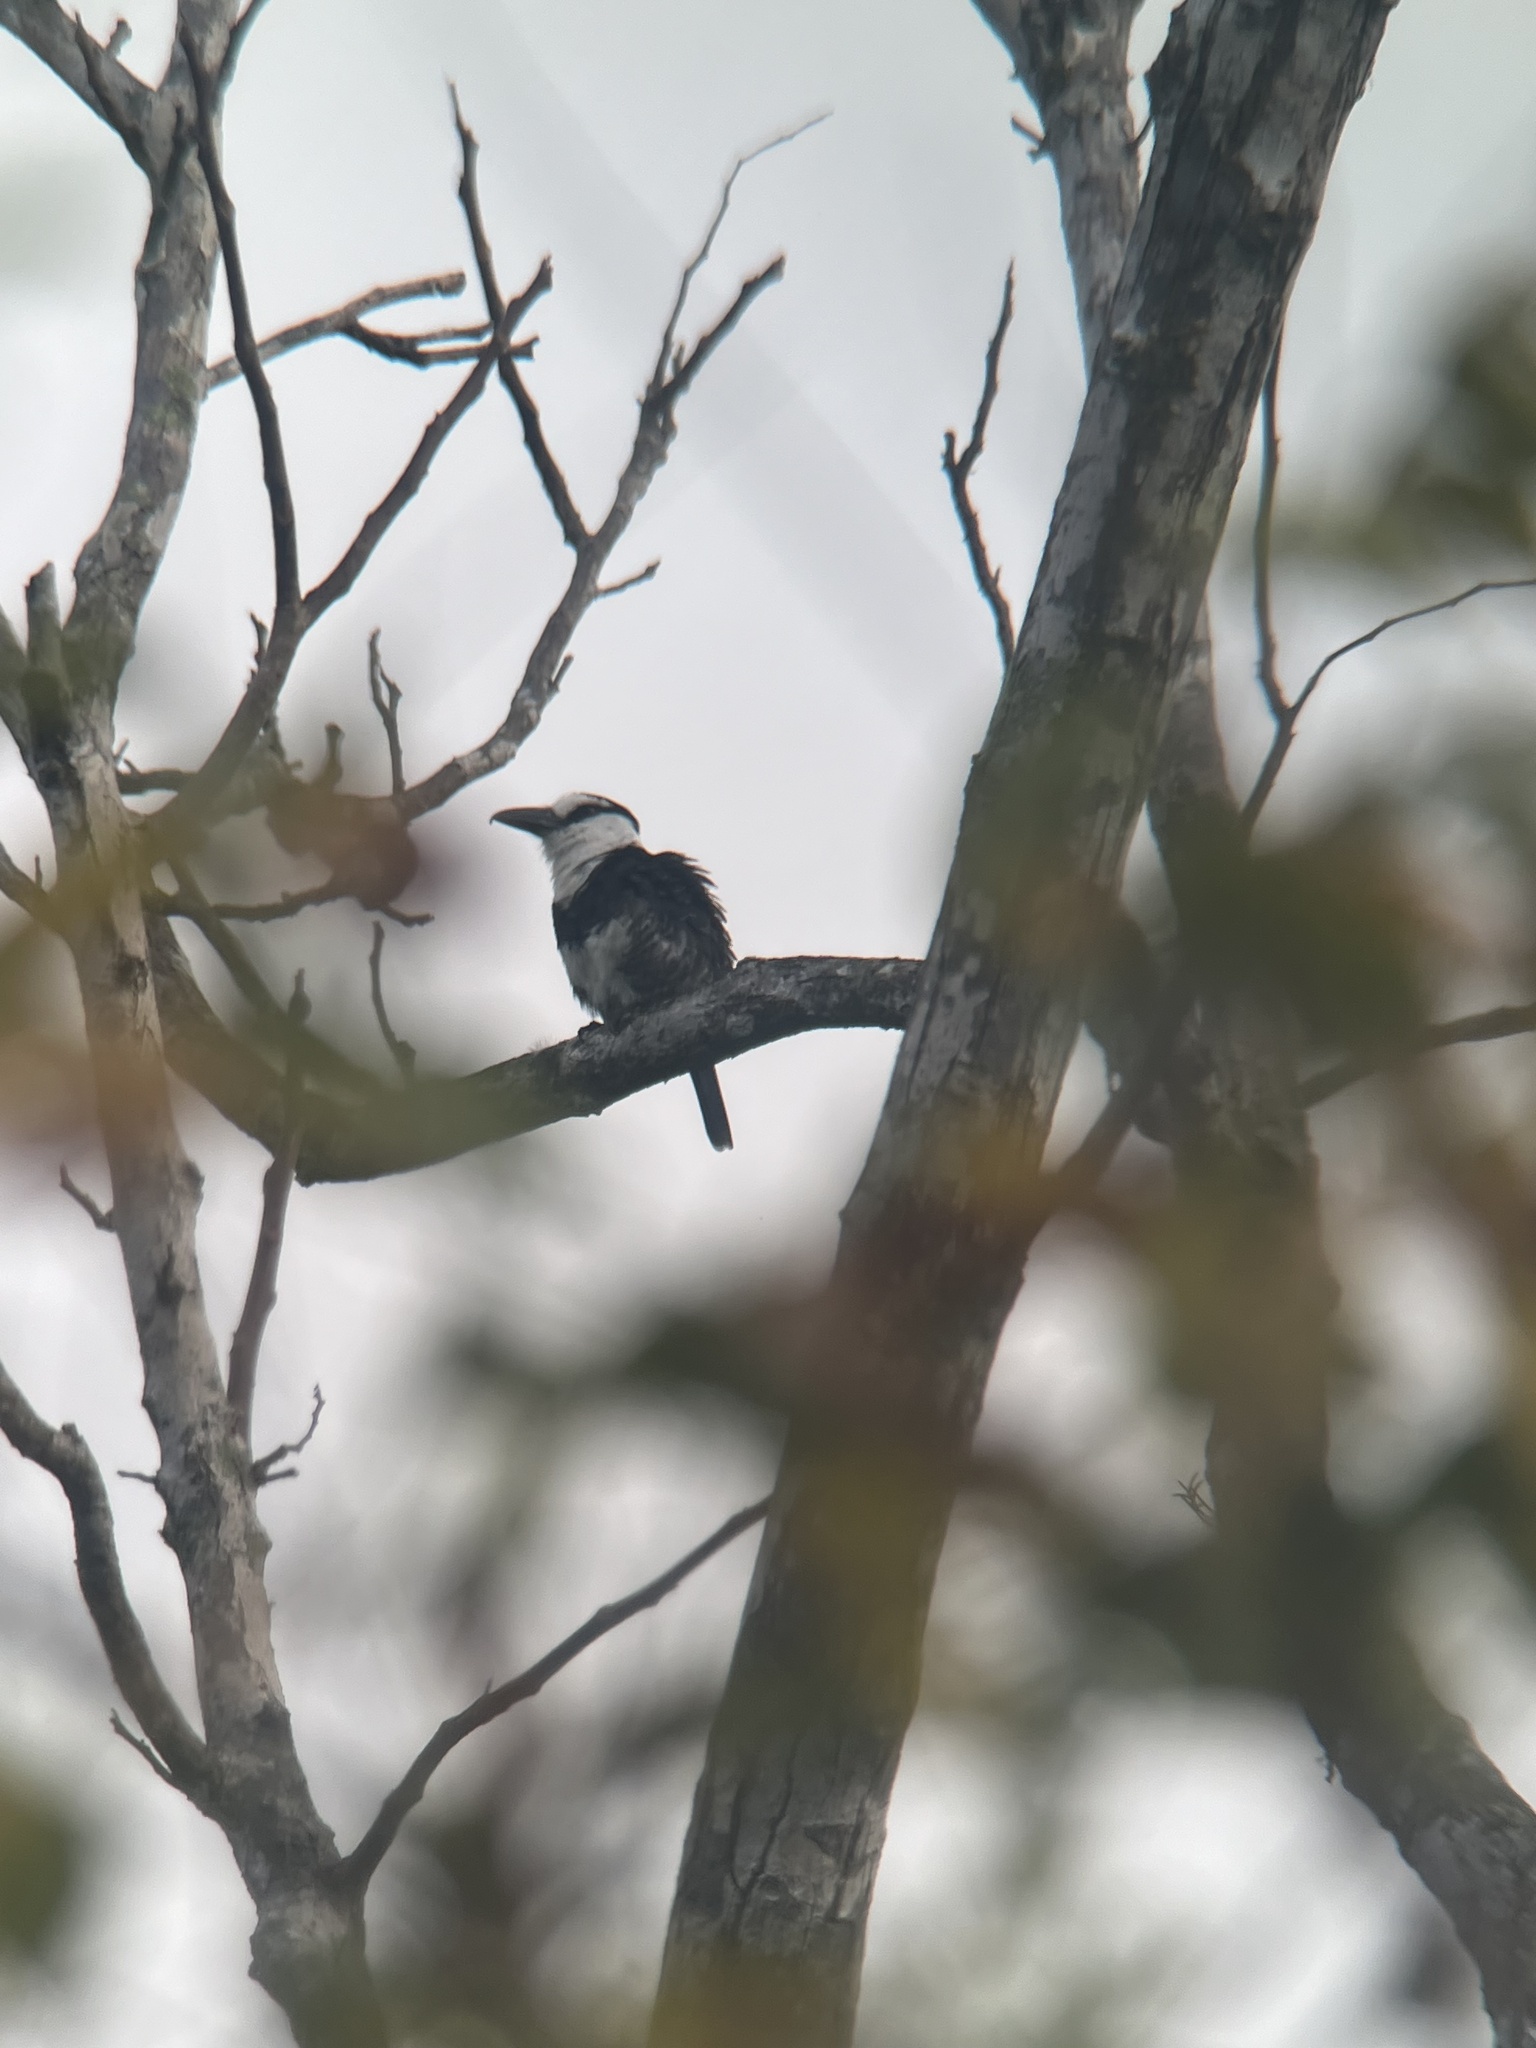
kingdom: Animalia
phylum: Chordata
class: Aves
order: Piciformes
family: Bucconidae
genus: Notharchus
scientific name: Notharchus hyperrhynchus
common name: White-necked puffbird
